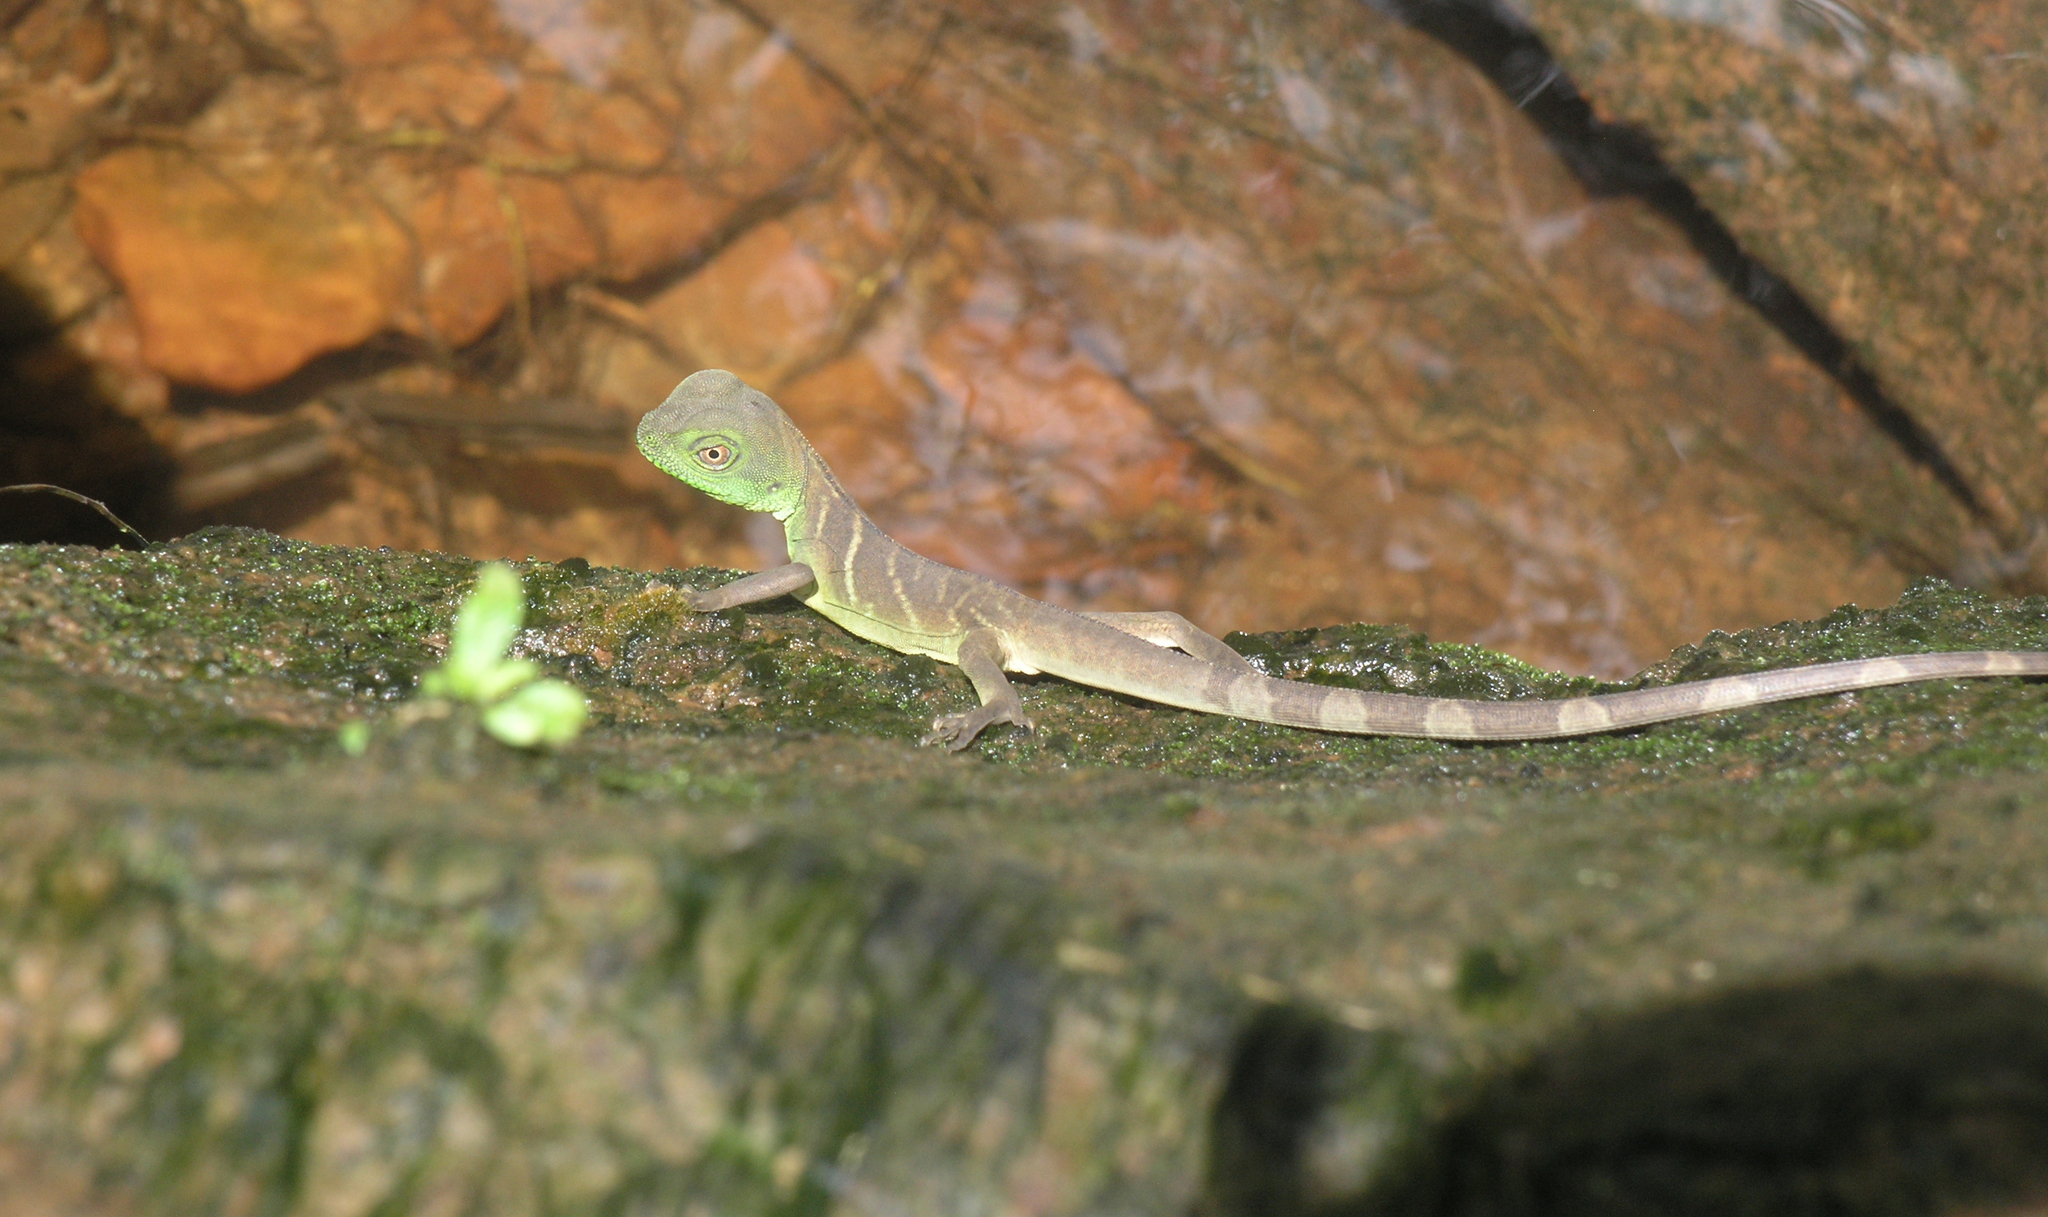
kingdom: Animalia
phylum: Chordata
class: Squamata
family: Agamidae
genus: Physignathus
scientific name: Physignathus cocincinus
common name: Asian water dragon
